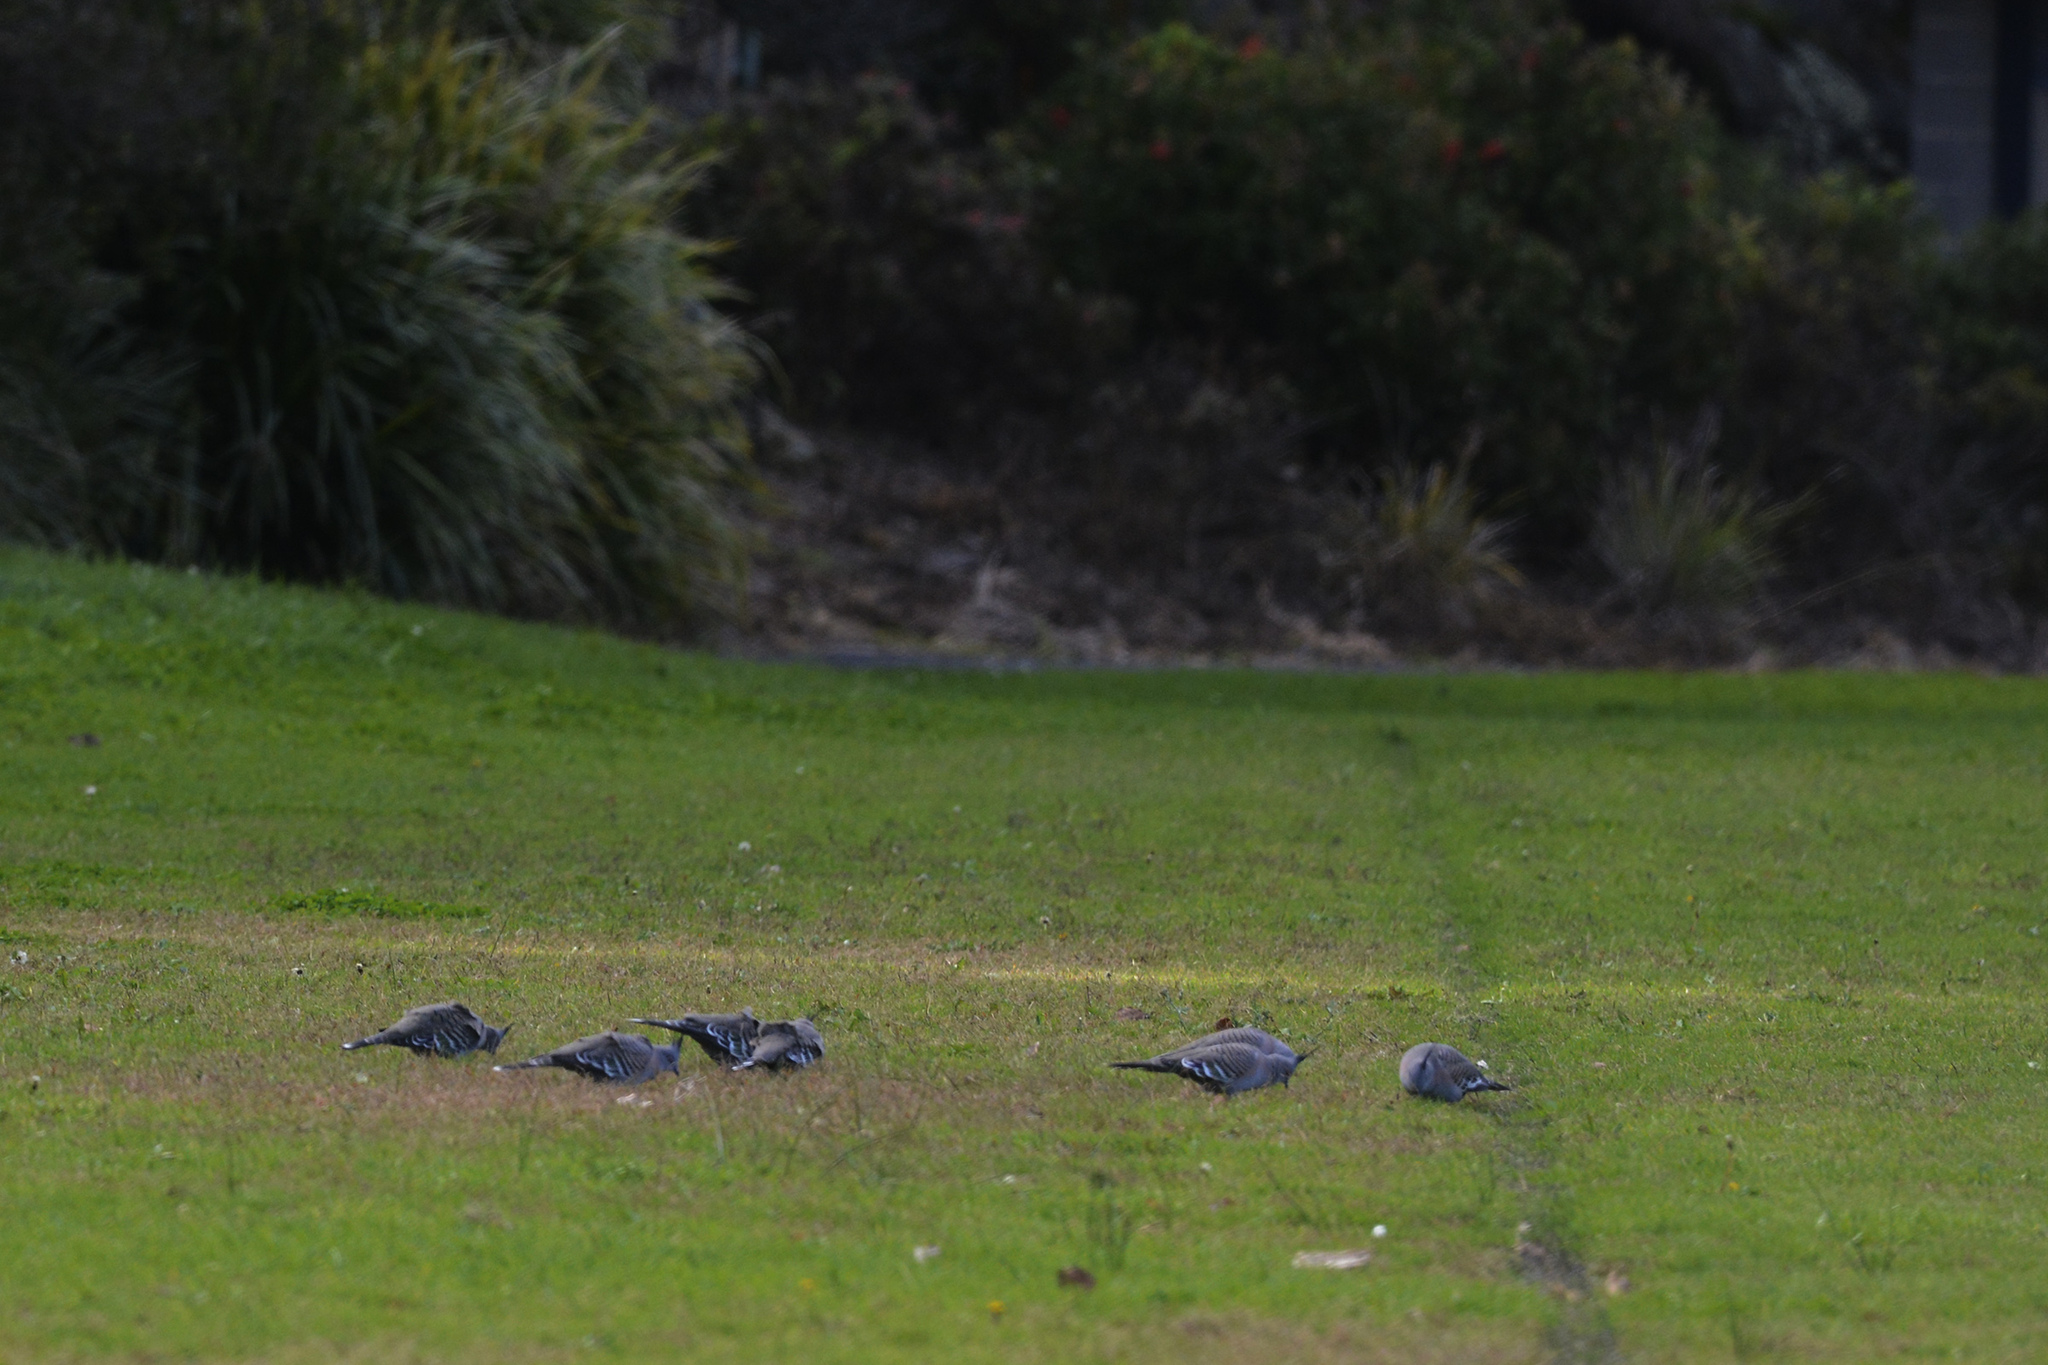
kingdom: Animalia
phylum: Chordata
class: Aves
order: Columbiformes
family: Columbidae
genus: Ocyphaps
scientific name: Ocyphaps lophotes
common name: Crested pigeon
